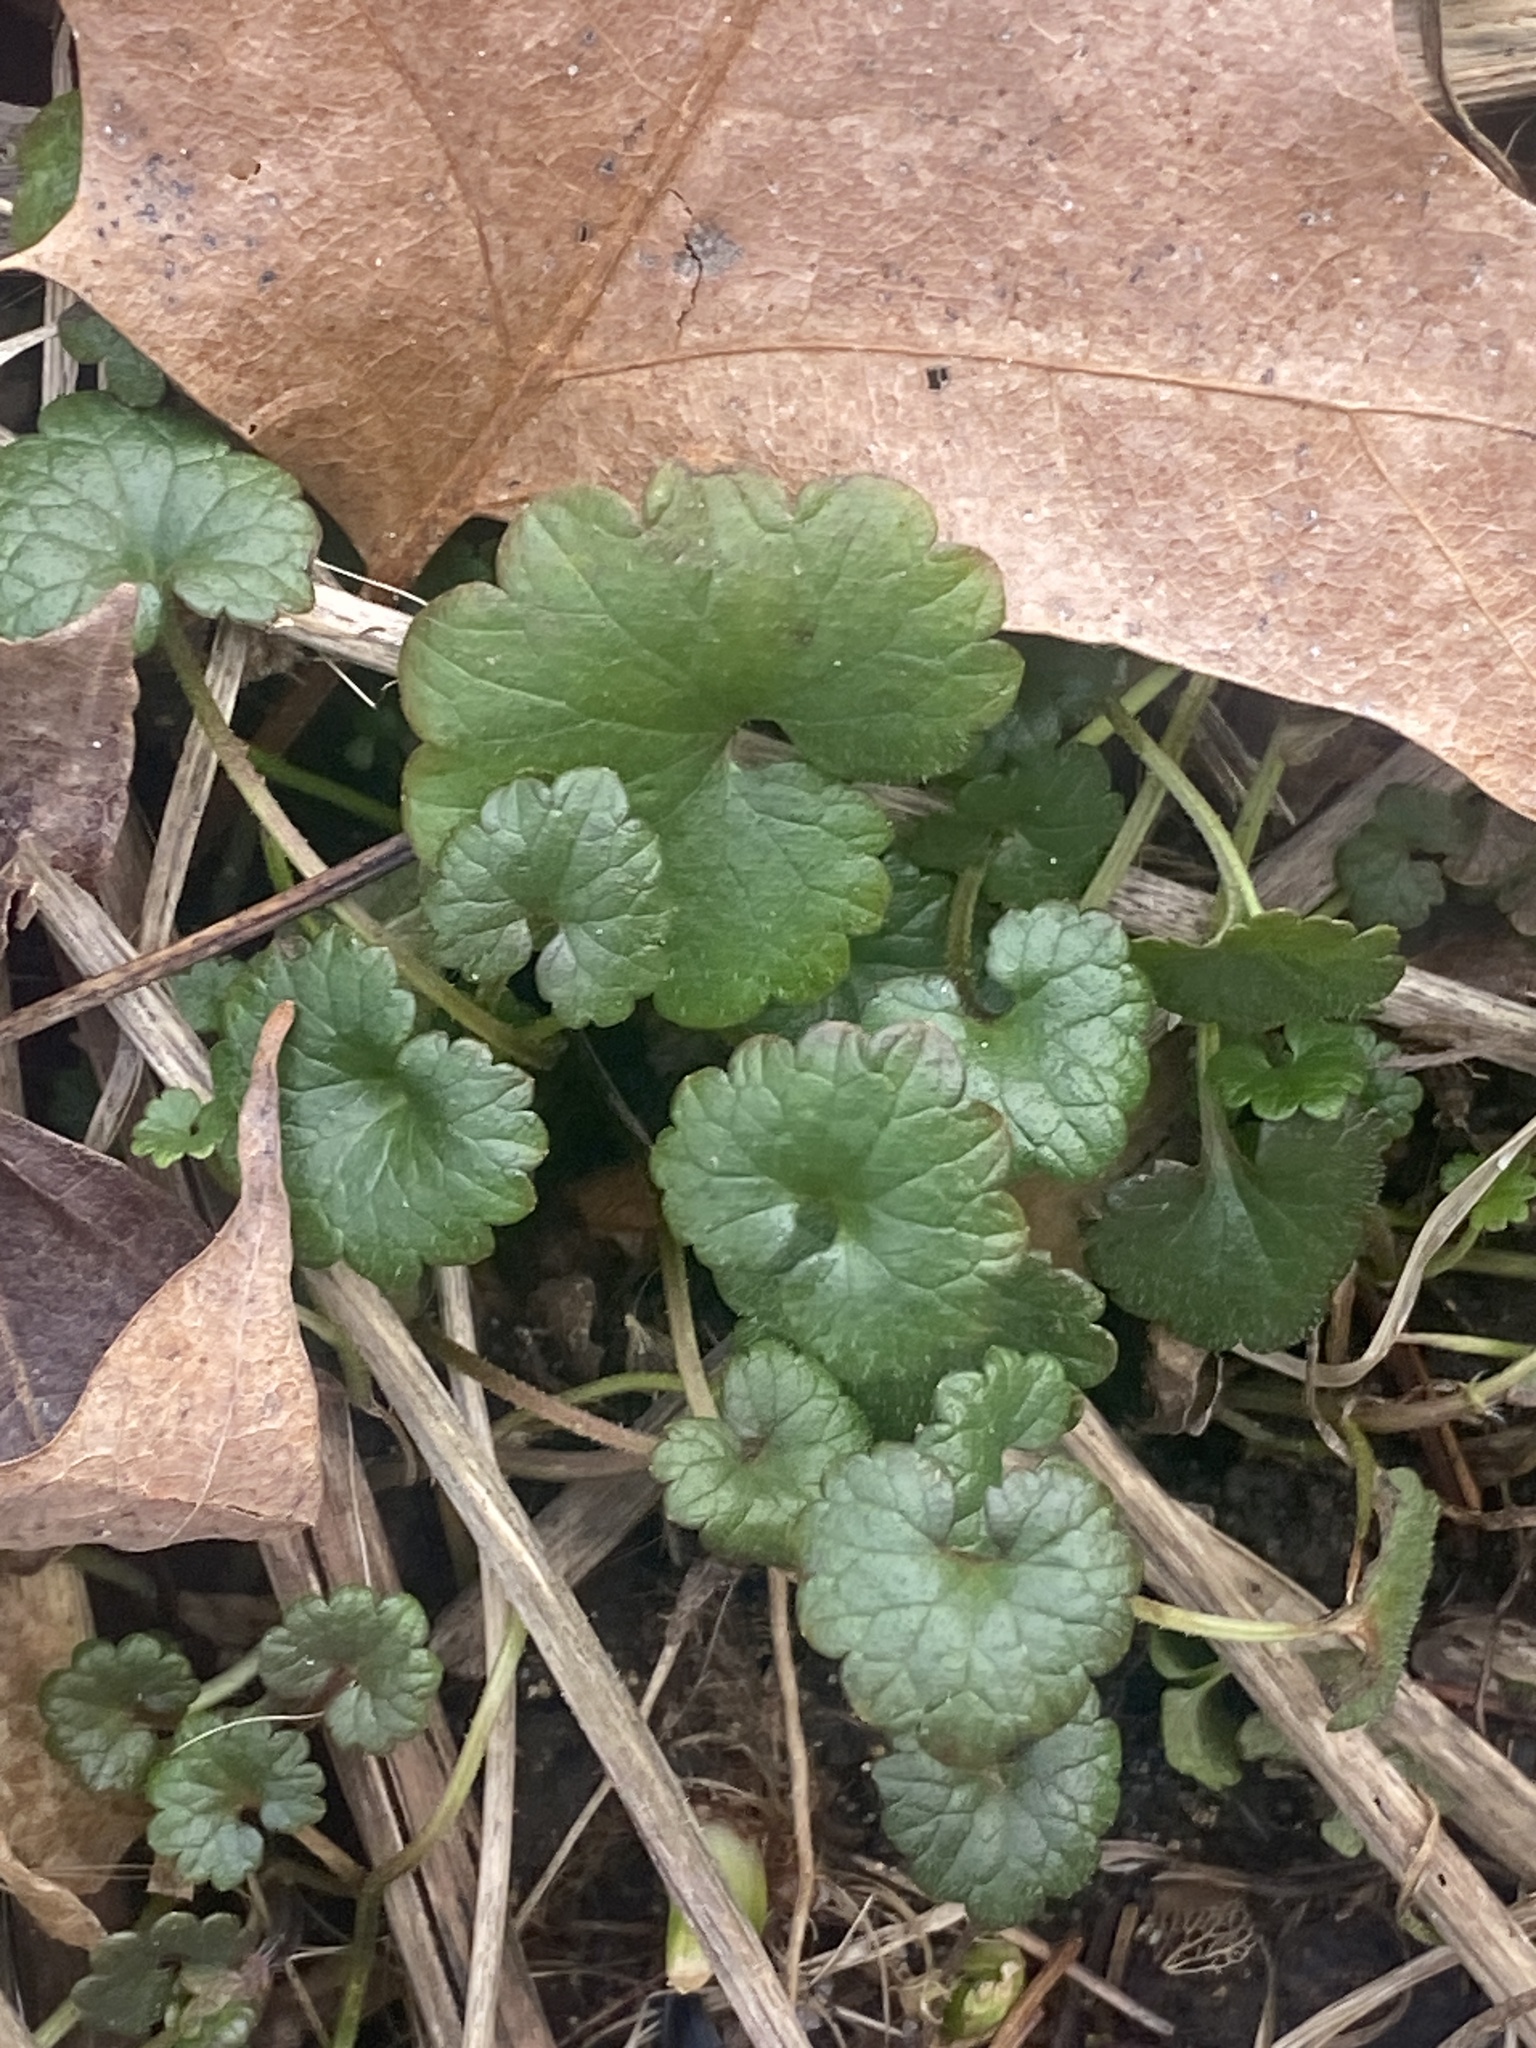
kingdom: Plantae
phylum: Tracheophyta
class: Magnoliopsida
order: Lamiales
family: Lamiaceae
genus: Glechoma
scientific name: Glechoma hederacea
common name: Ground ivy
